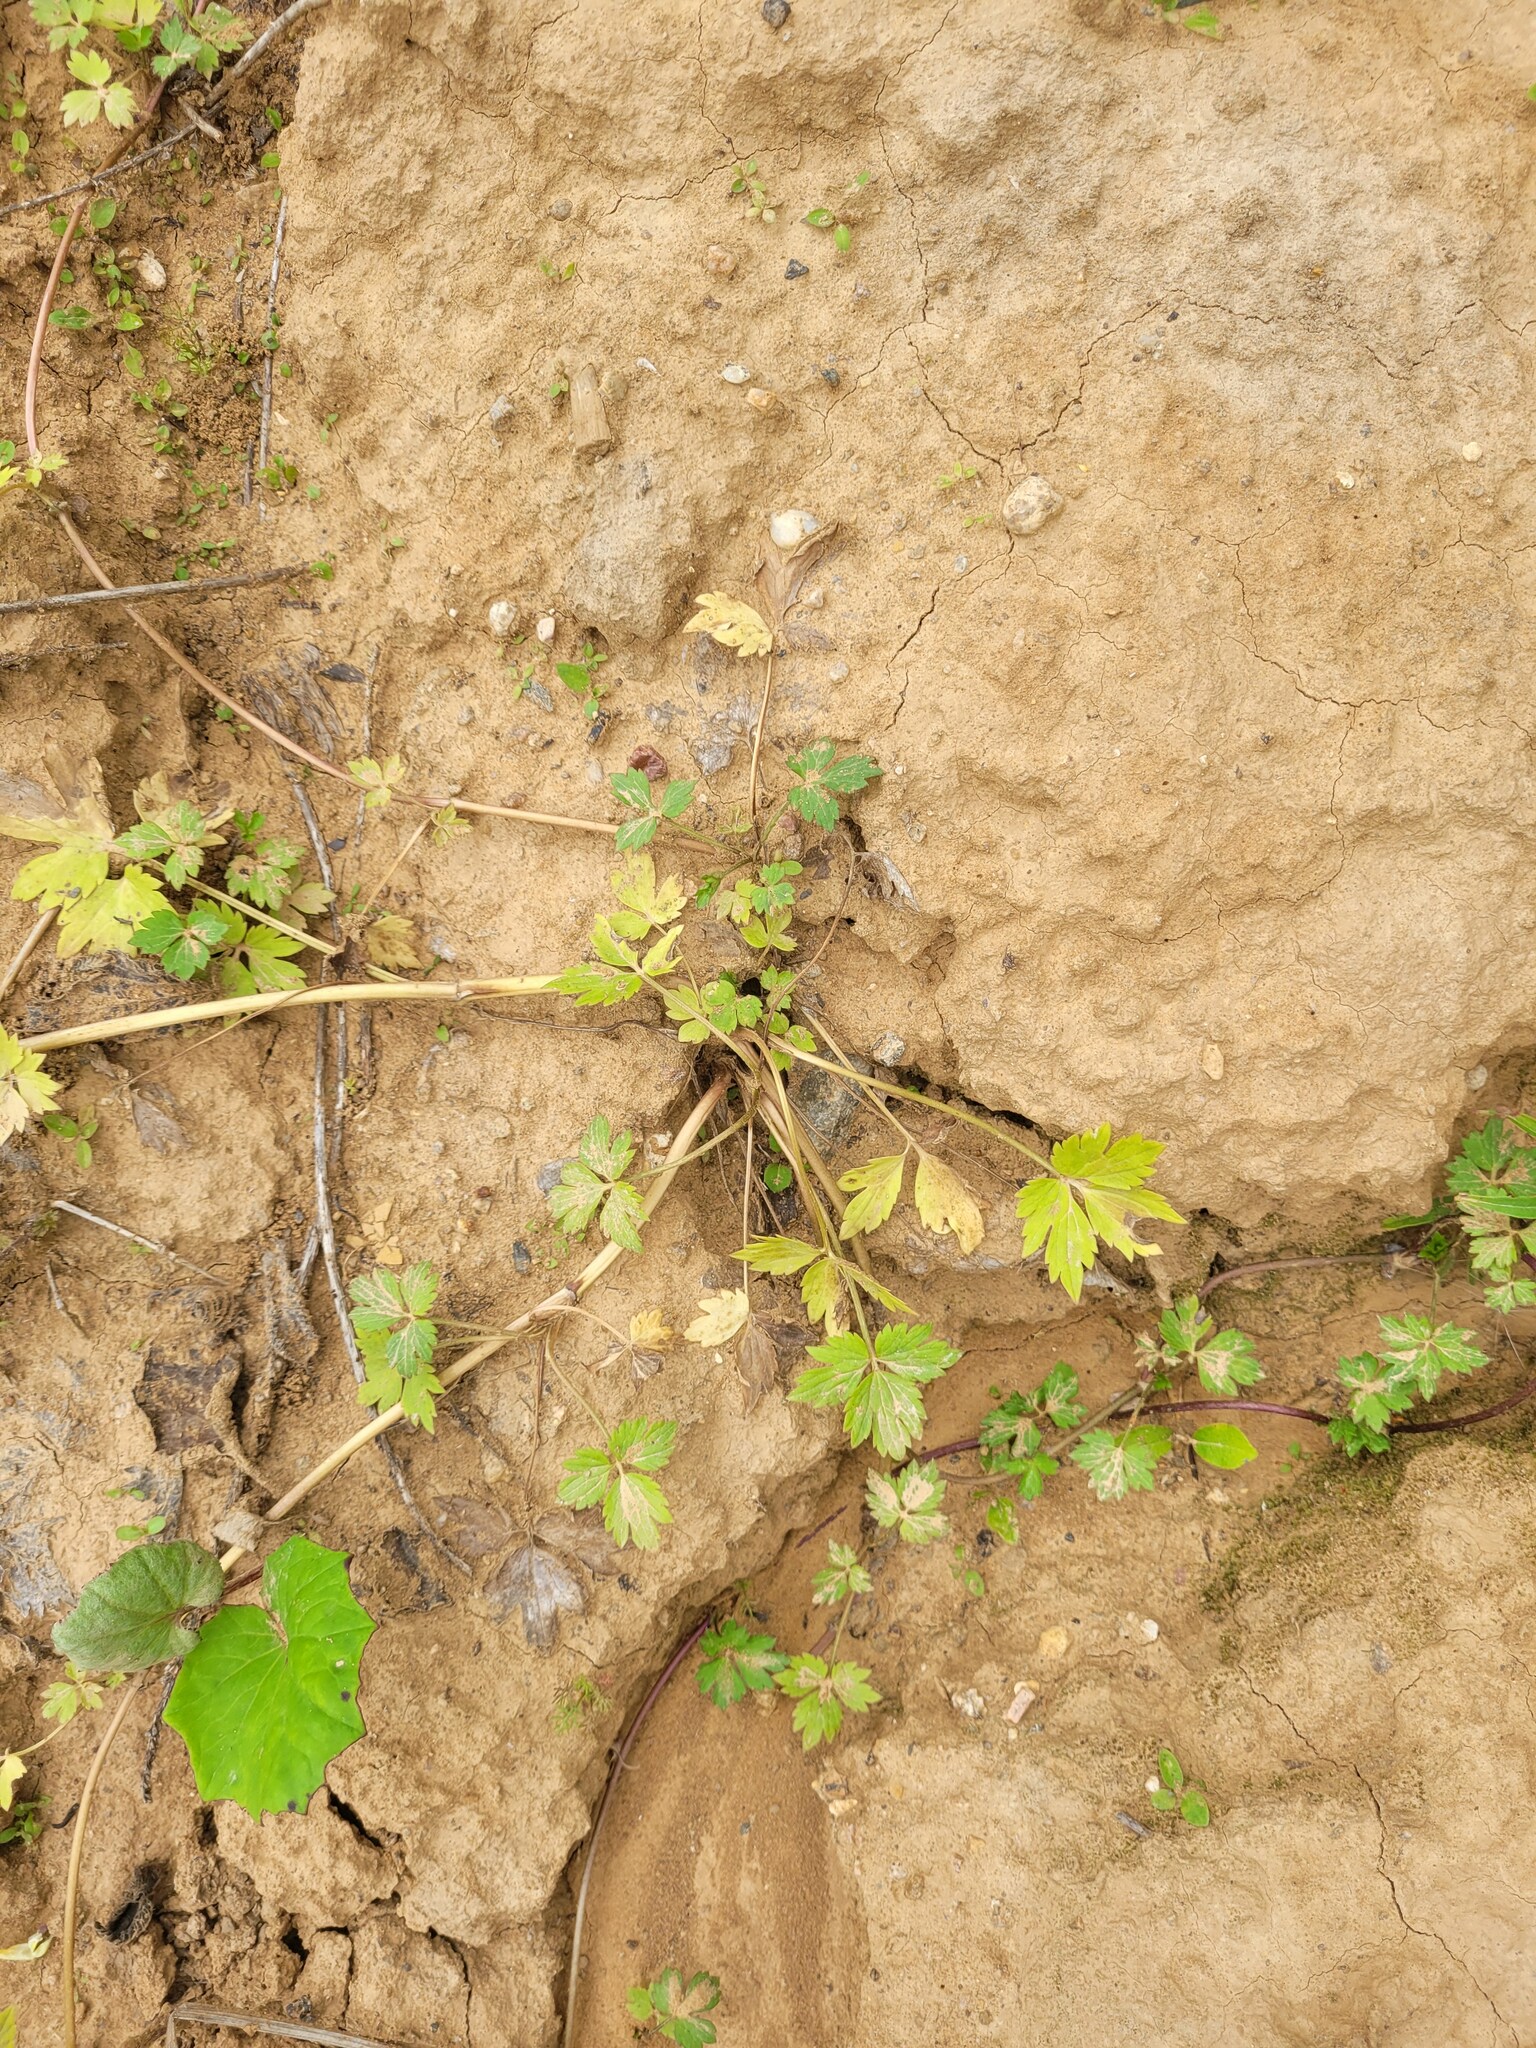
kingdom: Plantae
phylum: Tracheophyta
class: Magnoliopsida
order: Ranunculales
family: Ranunculaceae
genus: Ranunculus
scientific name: Ranunculus repens
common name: Creeping buttercup
